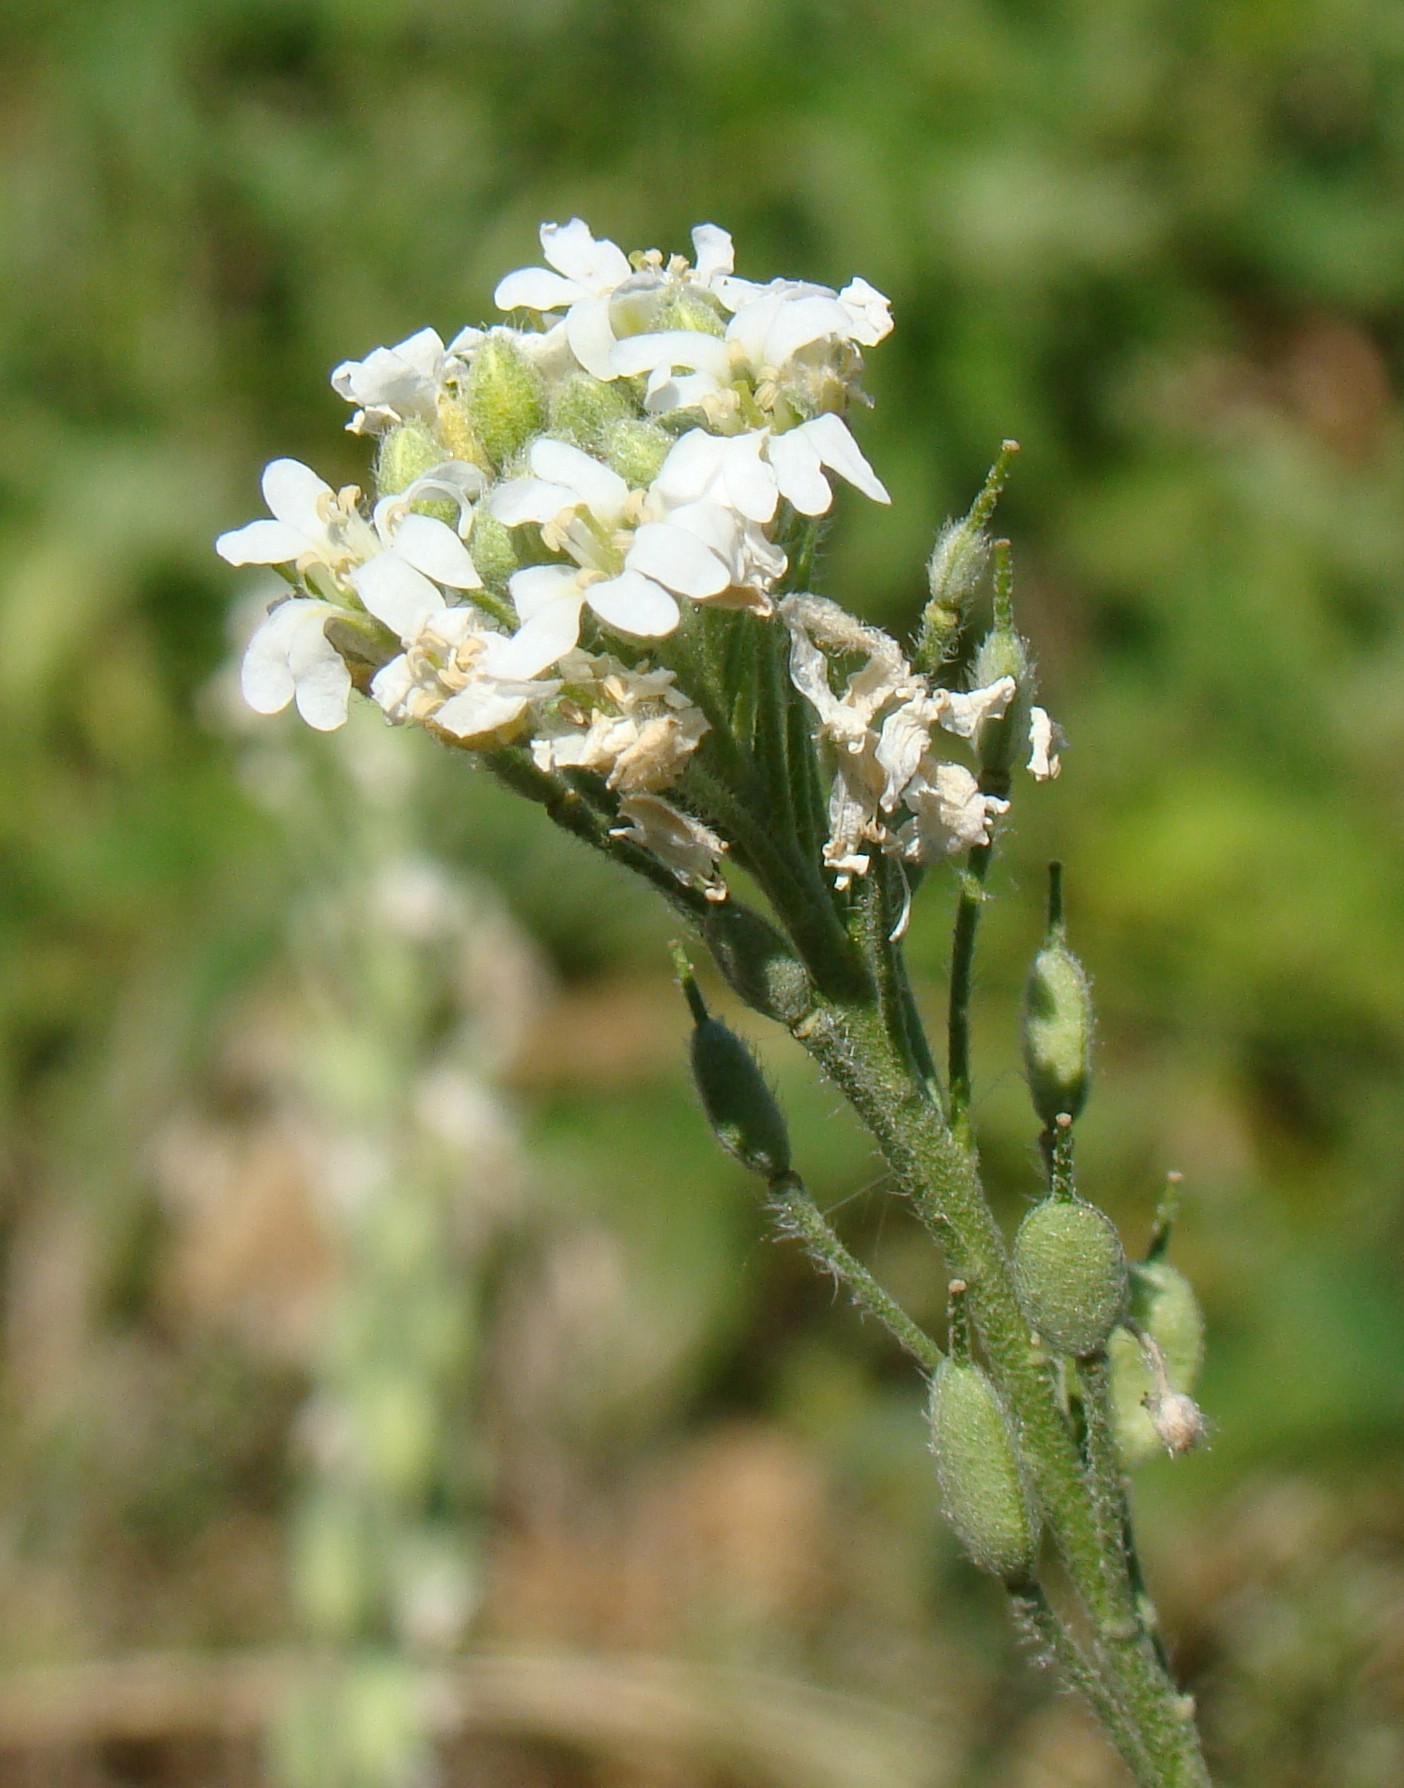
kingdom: Plantae
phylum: Tracheophyta
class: Magnoliopsida
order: Brassicales
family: Brassicaceae
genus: Berteroa
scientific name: Berteroa incana
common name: Hoary alison
